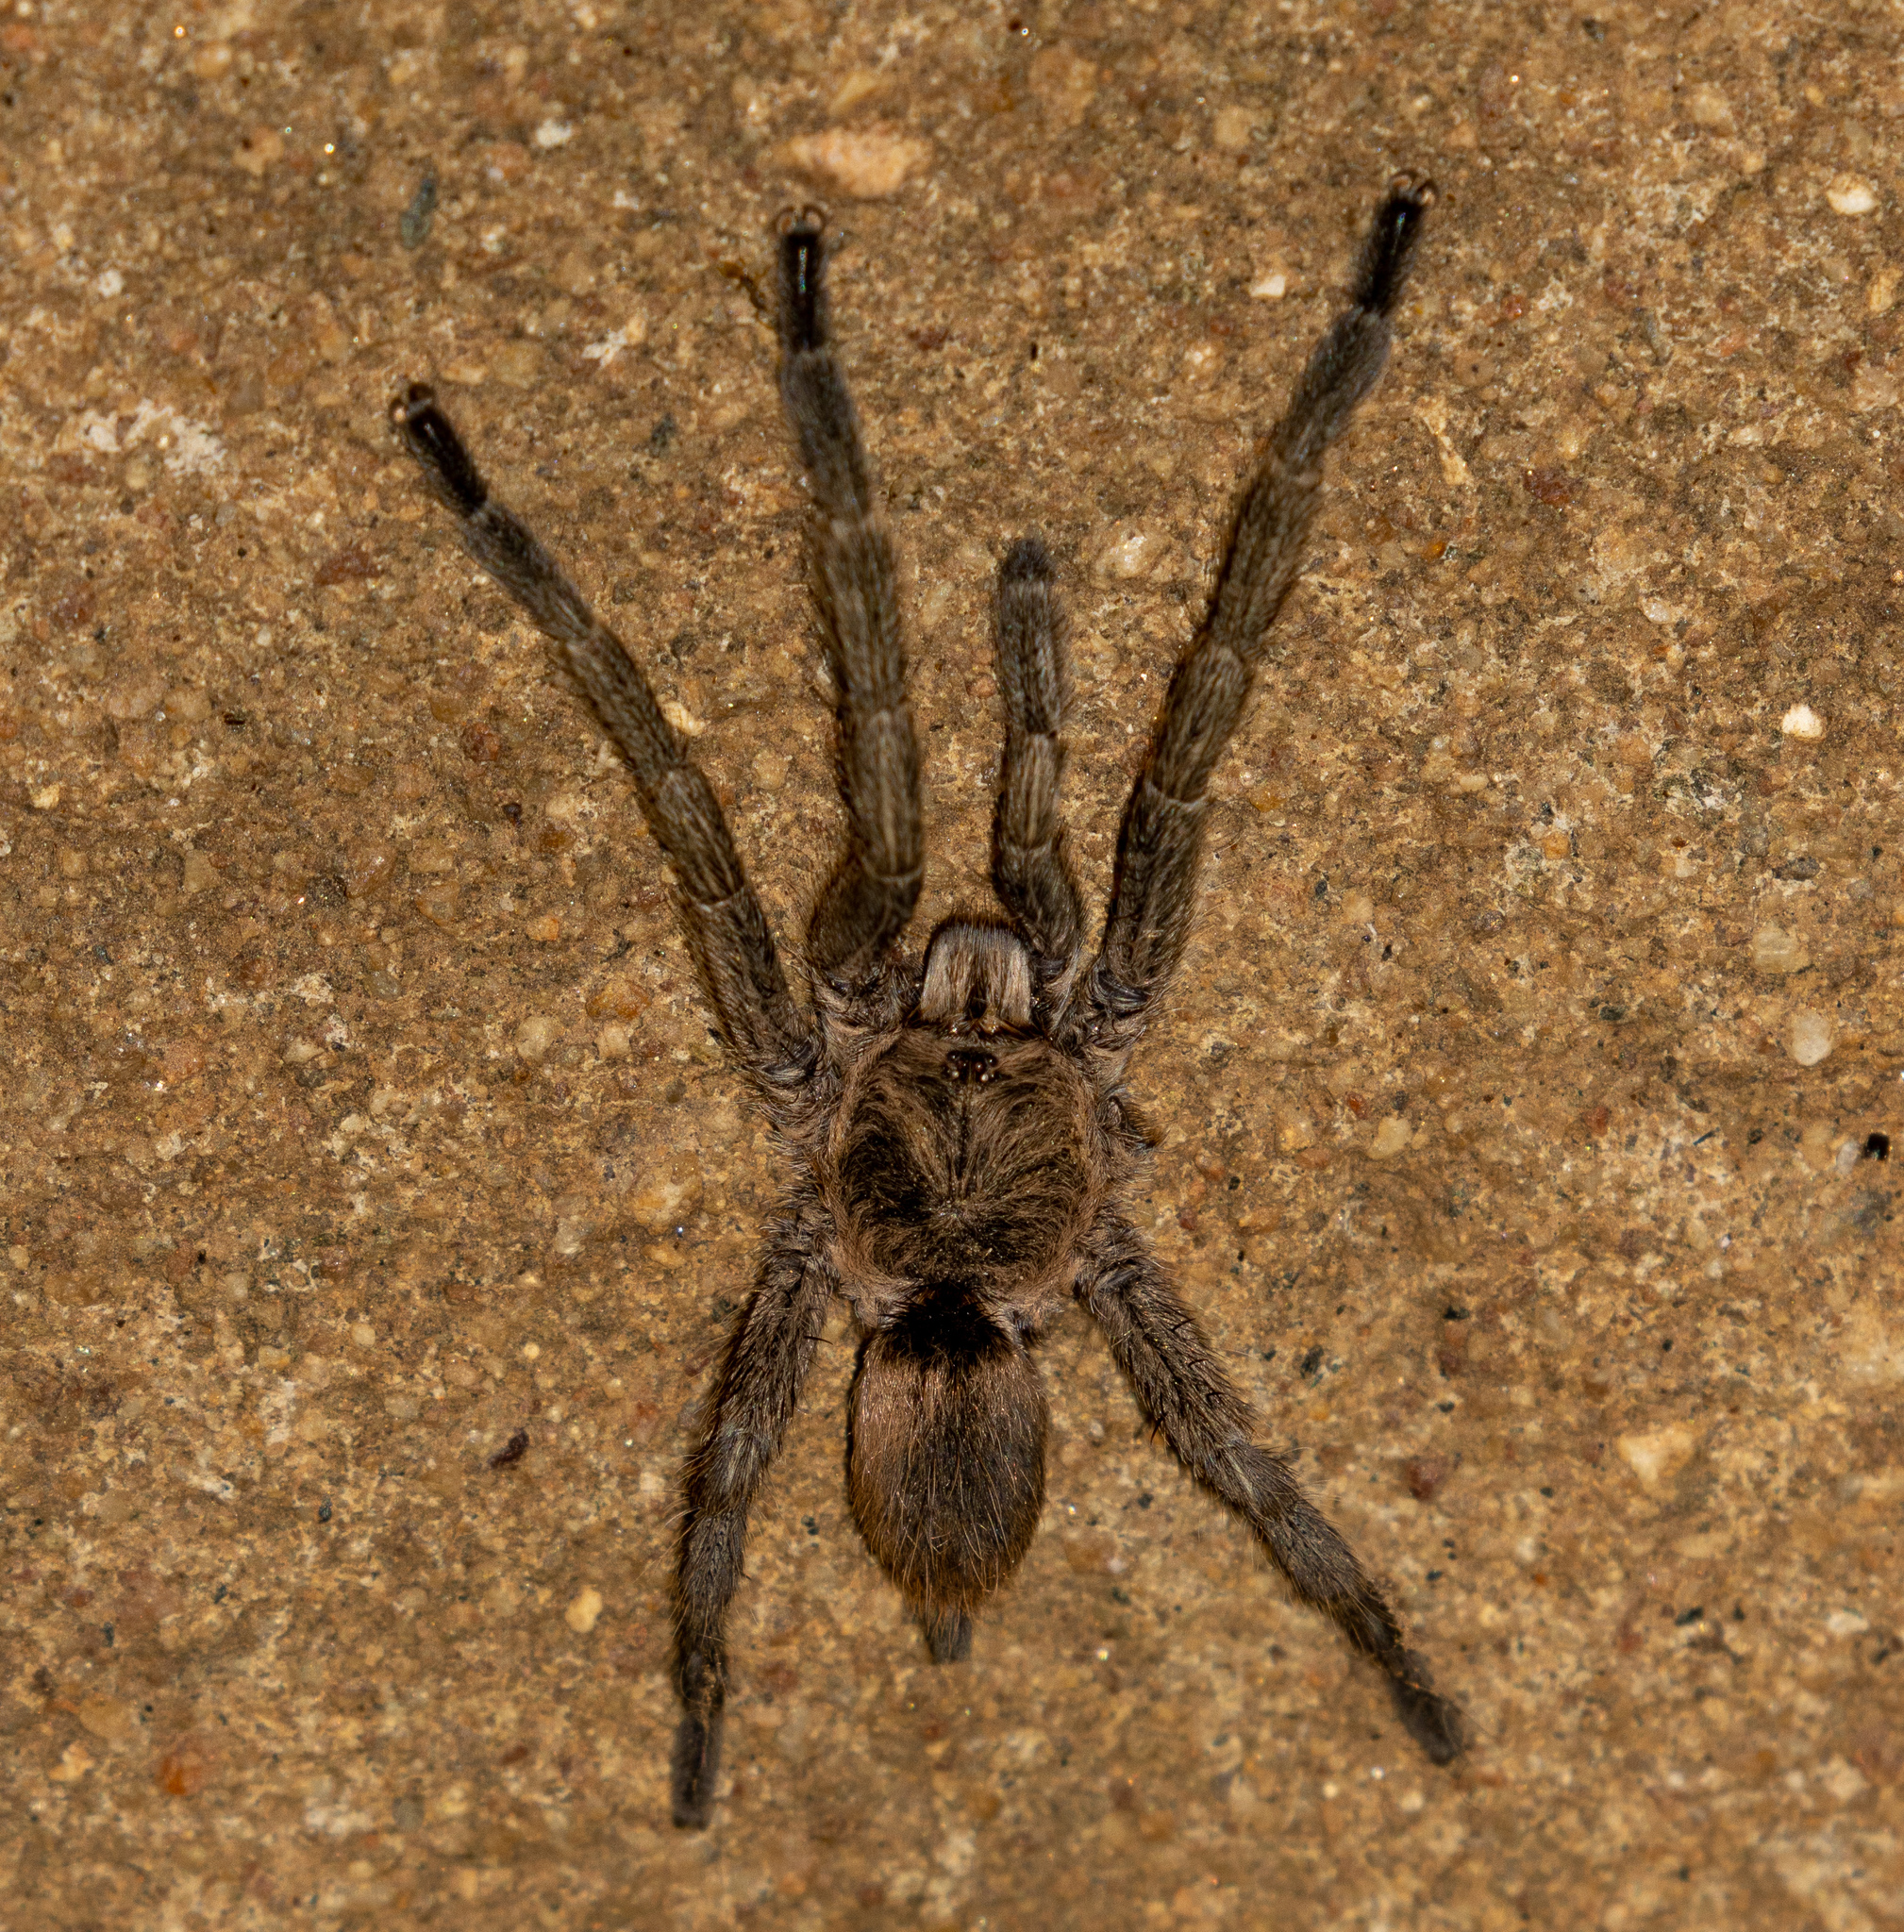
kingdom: Animalia
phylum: Arthropoda
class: Arachnida
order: Araneae
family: Theraphosidae
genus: Dolichothele
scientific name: Dolichothele exilis
